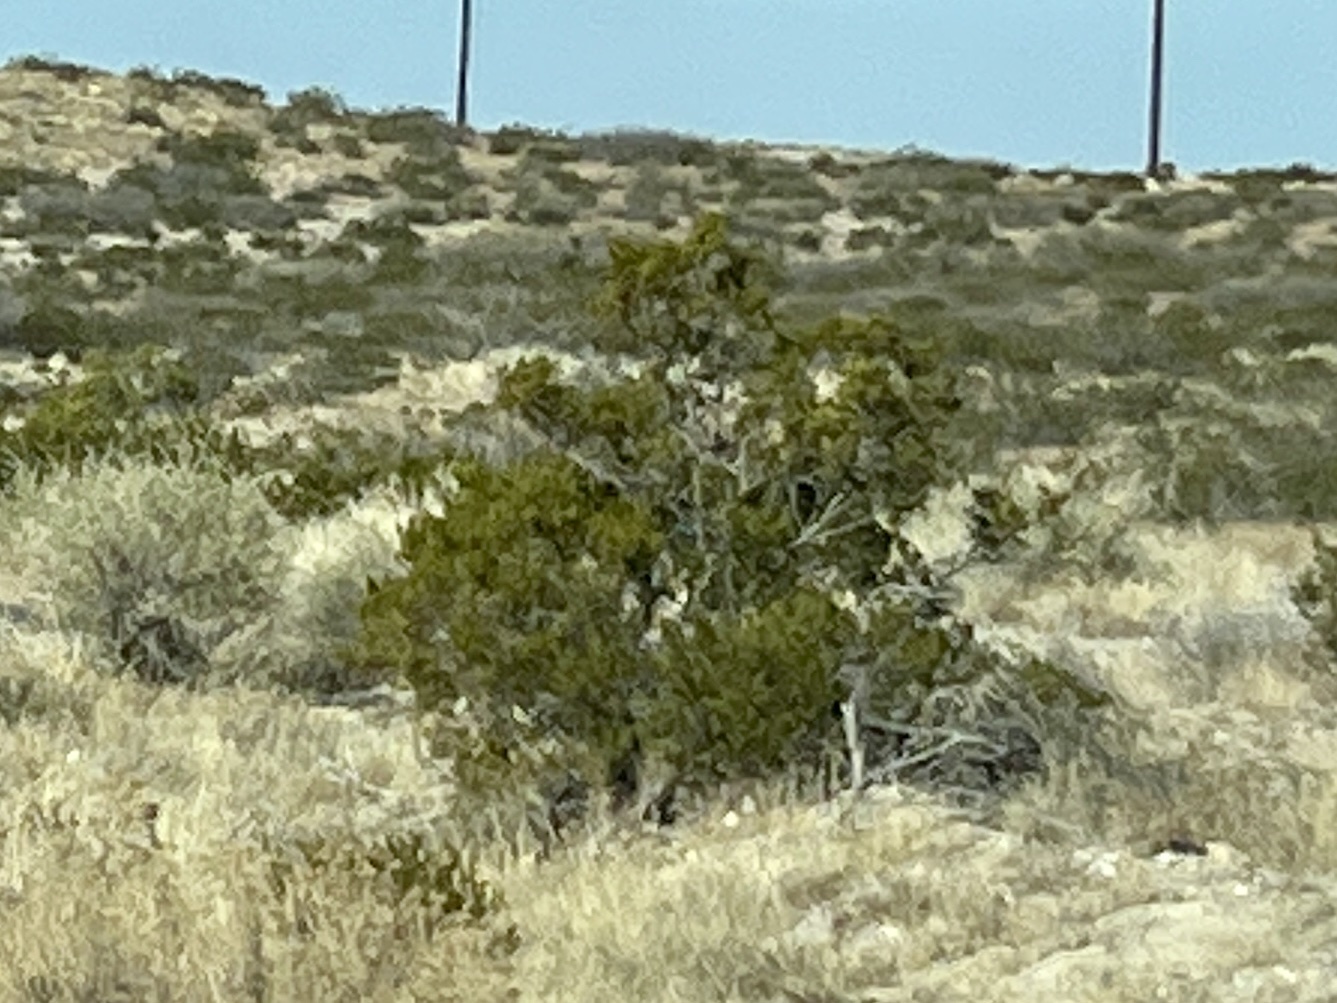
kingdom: Plantae
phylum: Tracheophyta
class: Magnoliopsida
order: Zygophyllales
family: Zygophyllaceae
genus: Larrea
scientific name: Larrea tridentata
